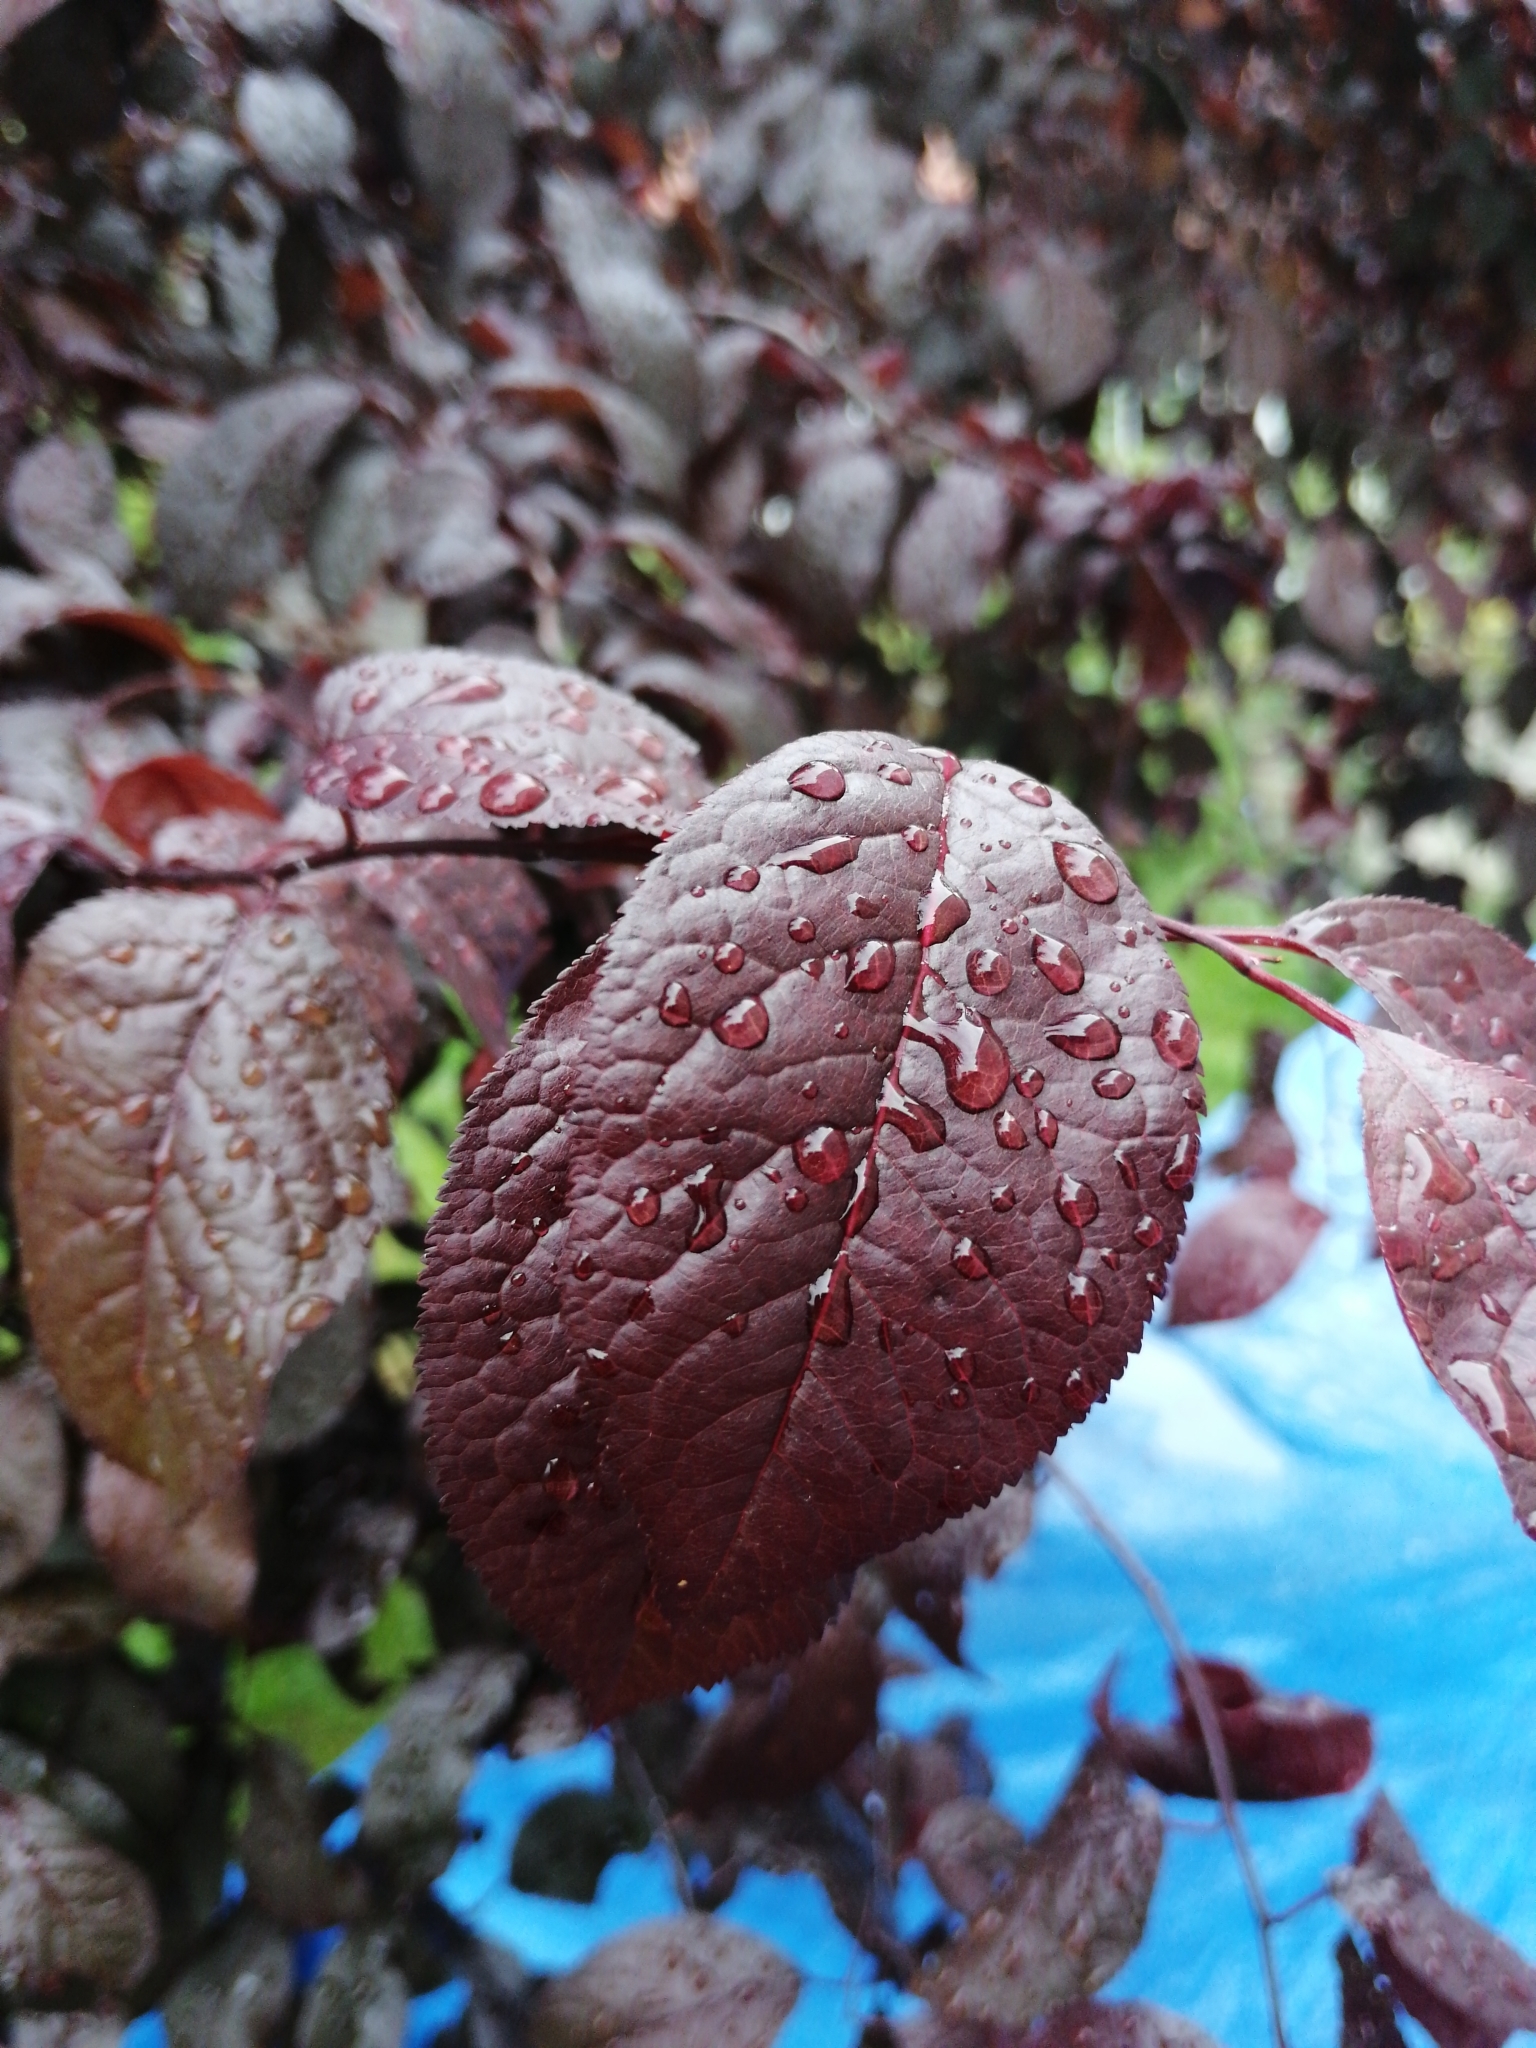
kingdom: Plantae
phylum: Tracheophyta
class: Magnoliopsida
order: Rosales
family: Rosaceae
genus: Prunus
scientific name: Prunus cerasifera
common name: Cherry plum
